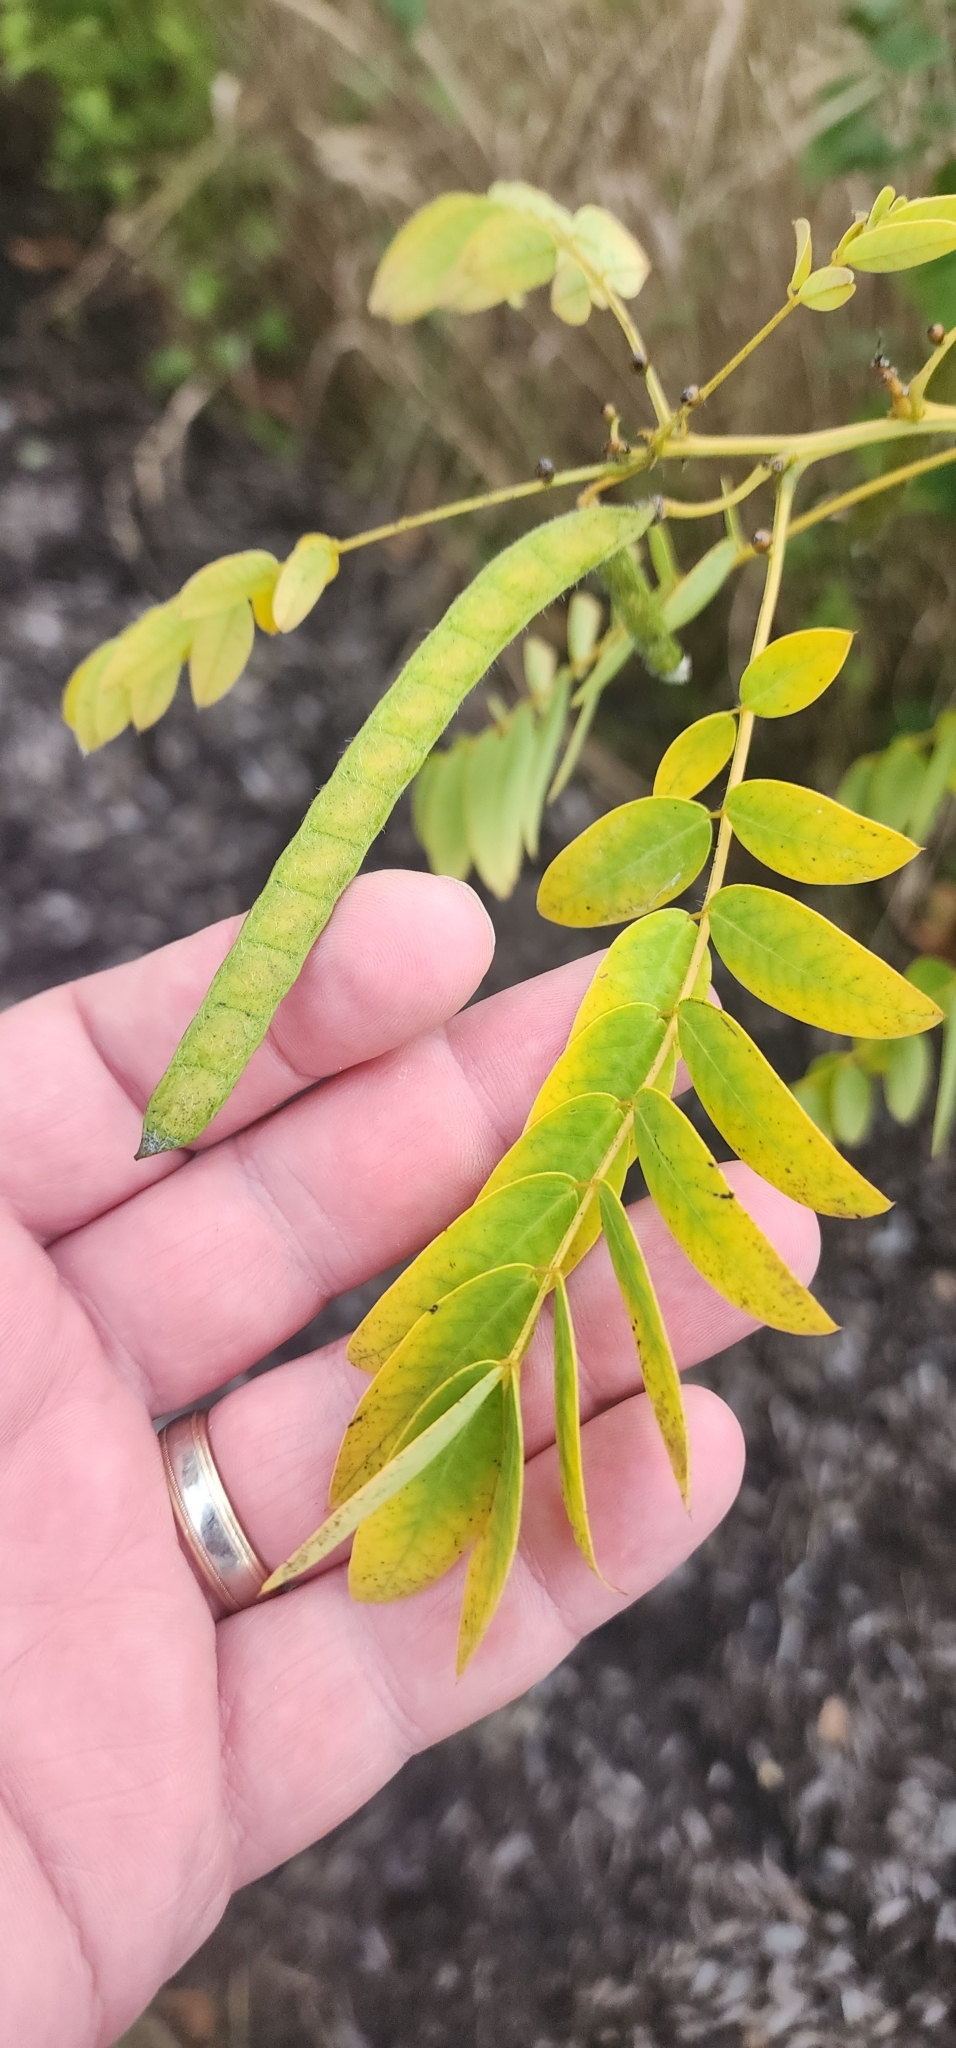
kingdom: Plantae
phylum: Tracheophyta
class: Magnoliopsida
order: Fabales
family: Fabaceae
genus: Chamaecrista
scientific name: Chamaecrista fasciculata
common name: Golden cassia
